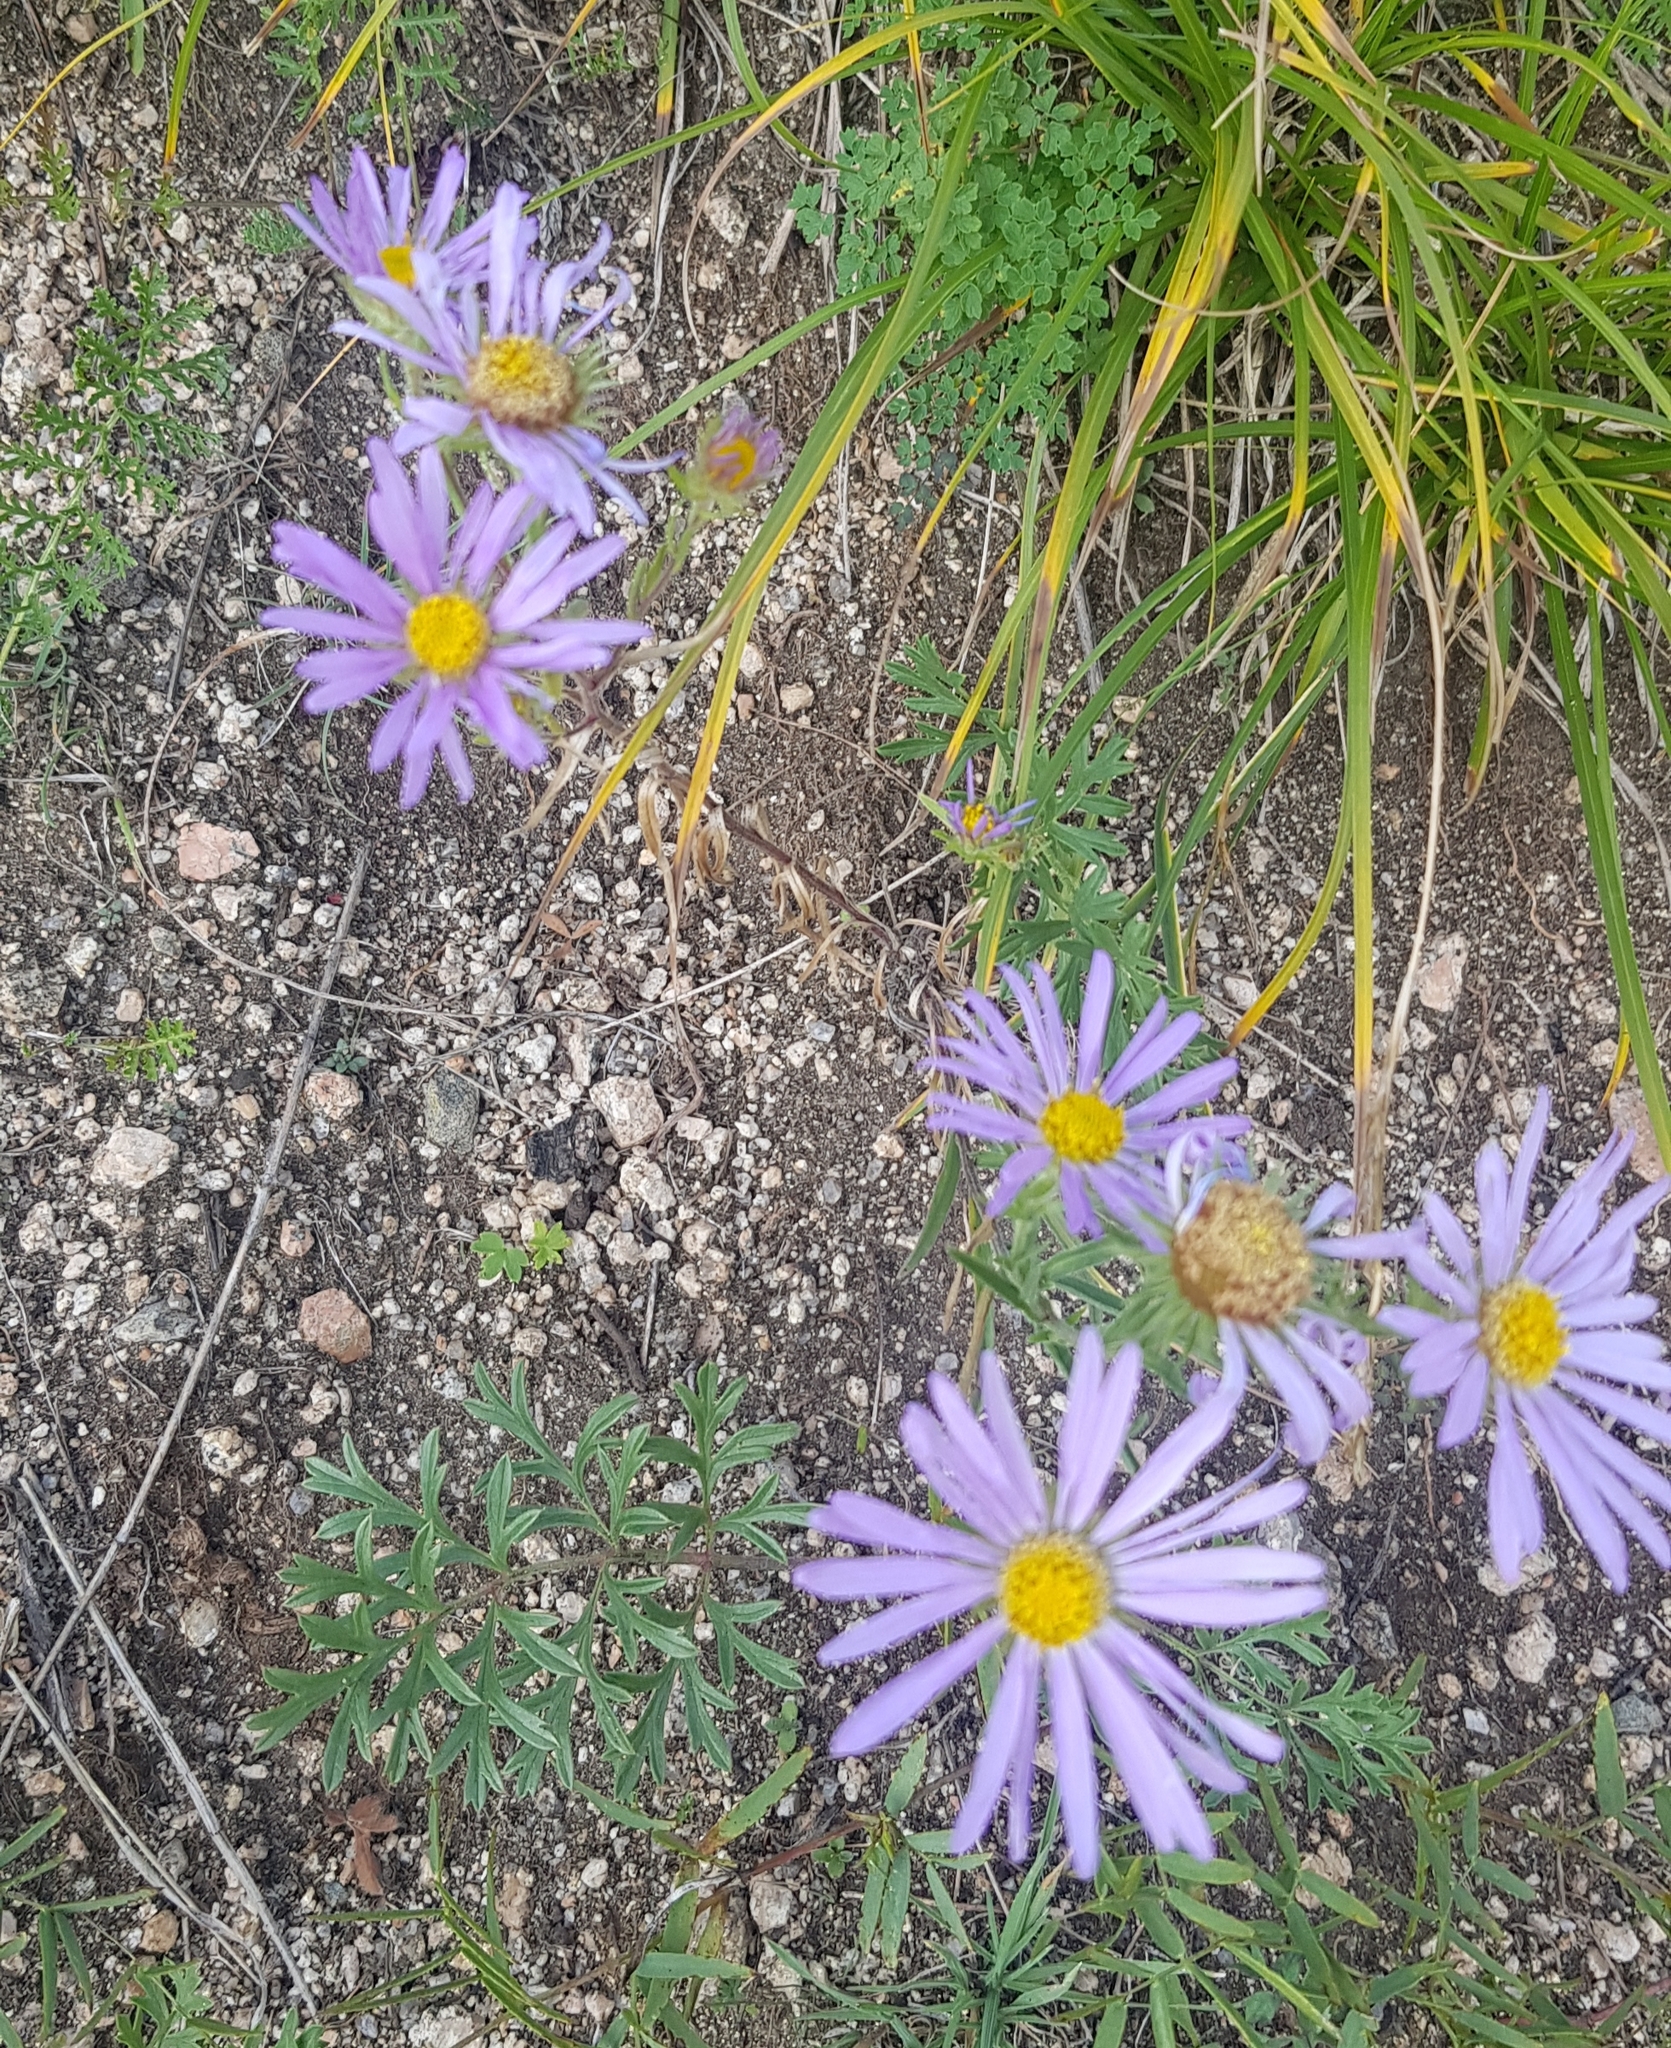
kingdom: Plantae
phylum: Tracheophyta
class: Magnoliopsida
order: Asterales
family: Asteraceae
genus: Heteropappus
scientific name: Heteropappus altaicus
